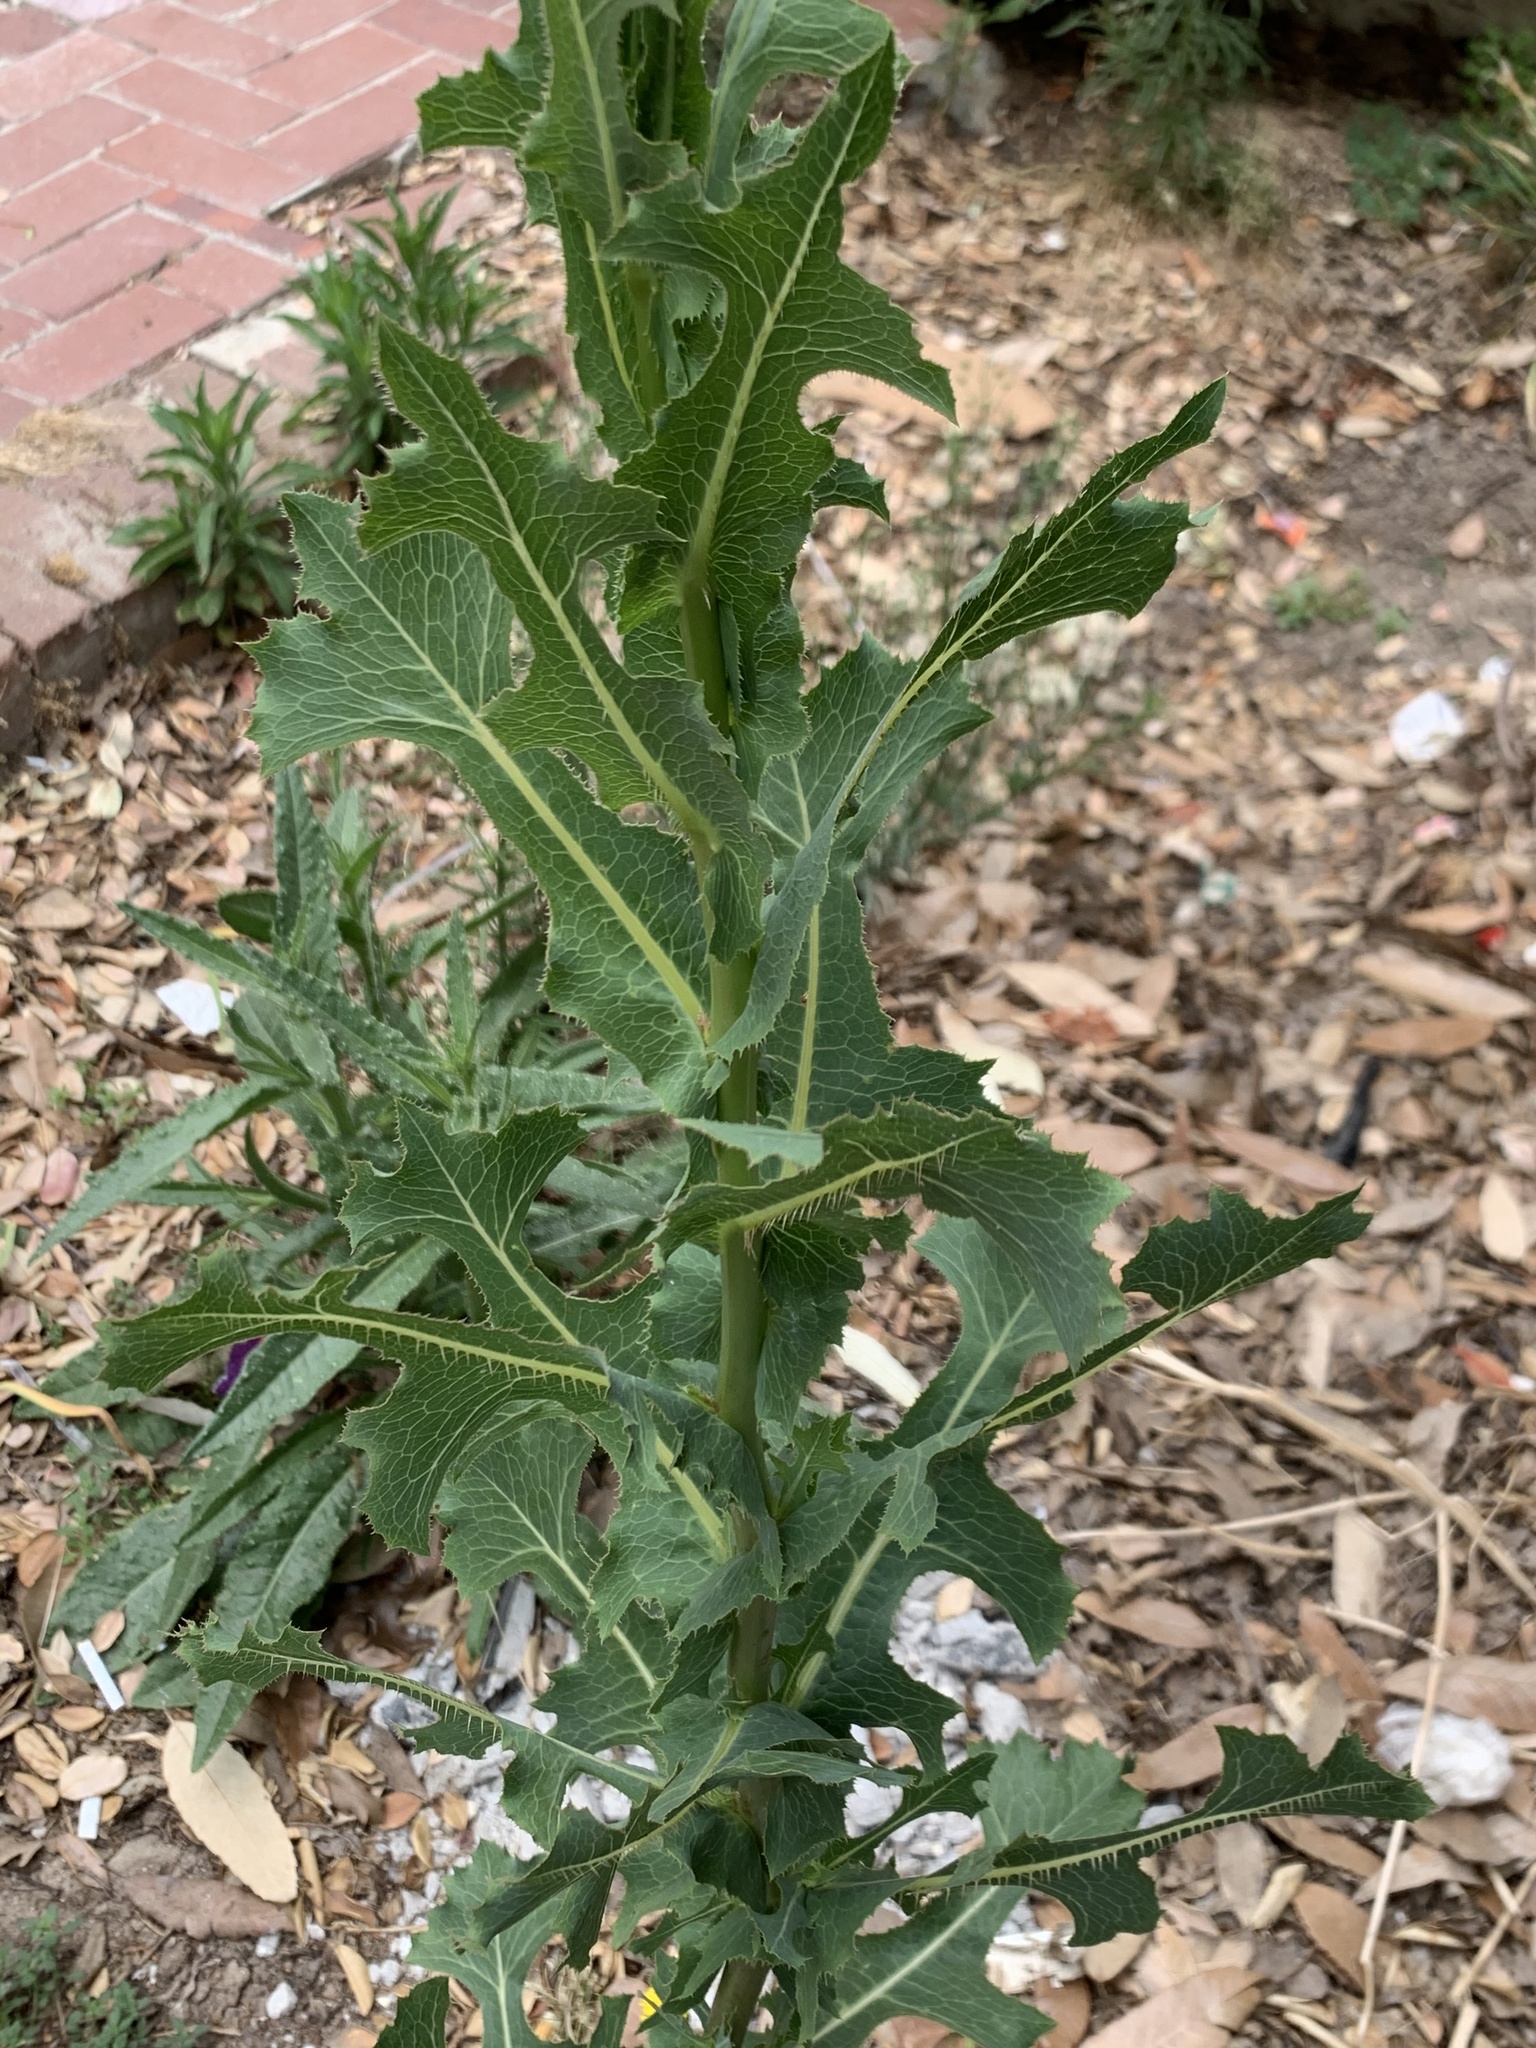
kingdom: Plantae
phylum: Tracheophyta
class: Magnoliopsida
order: Asterales
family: Asteraceae
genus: Lactuca
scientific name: Lactuca serriola
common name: Prickly lettuce
